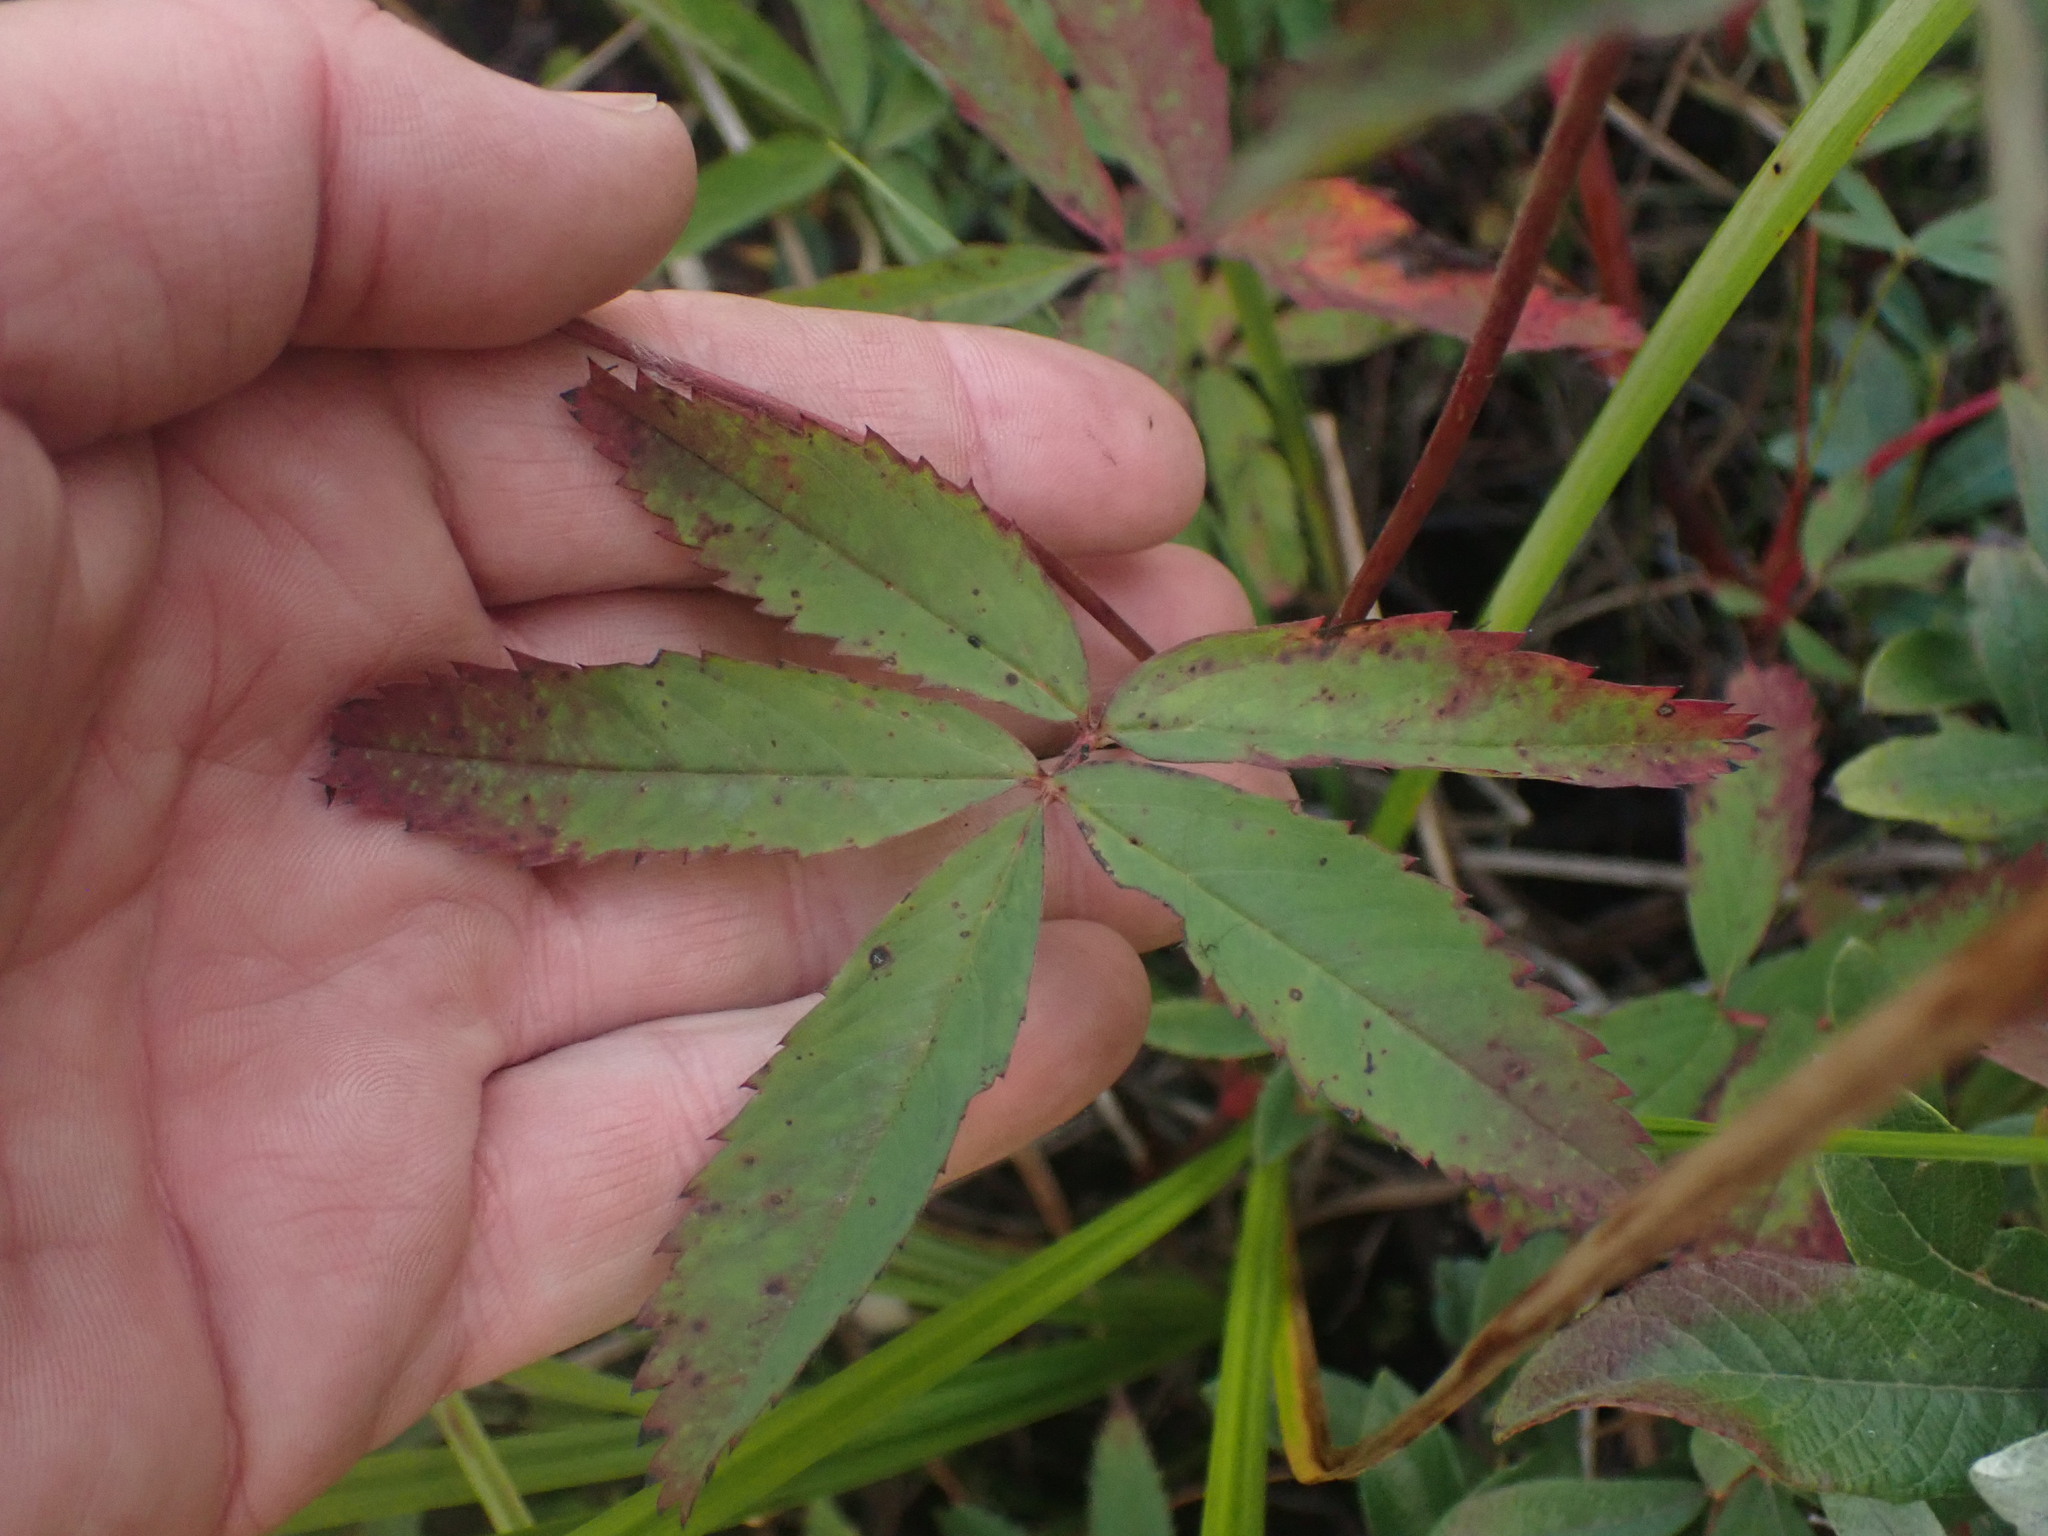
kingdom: Plantae
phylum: Tracheophyta
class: Magnoliopsida
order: Rosales
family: Rosaceae
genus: Comarum
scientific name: Comarum palustre
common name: Marsh cinquefoil
